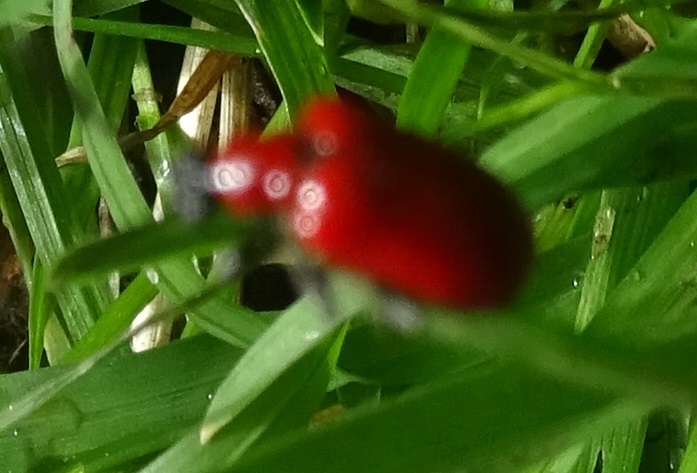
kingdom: Animalia
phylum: Arthropoda
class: Insecta
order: Coleoptera
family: Chrysomelidae
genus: Lilioceris
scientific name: Lilioceris lilii
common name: Lily beetle
